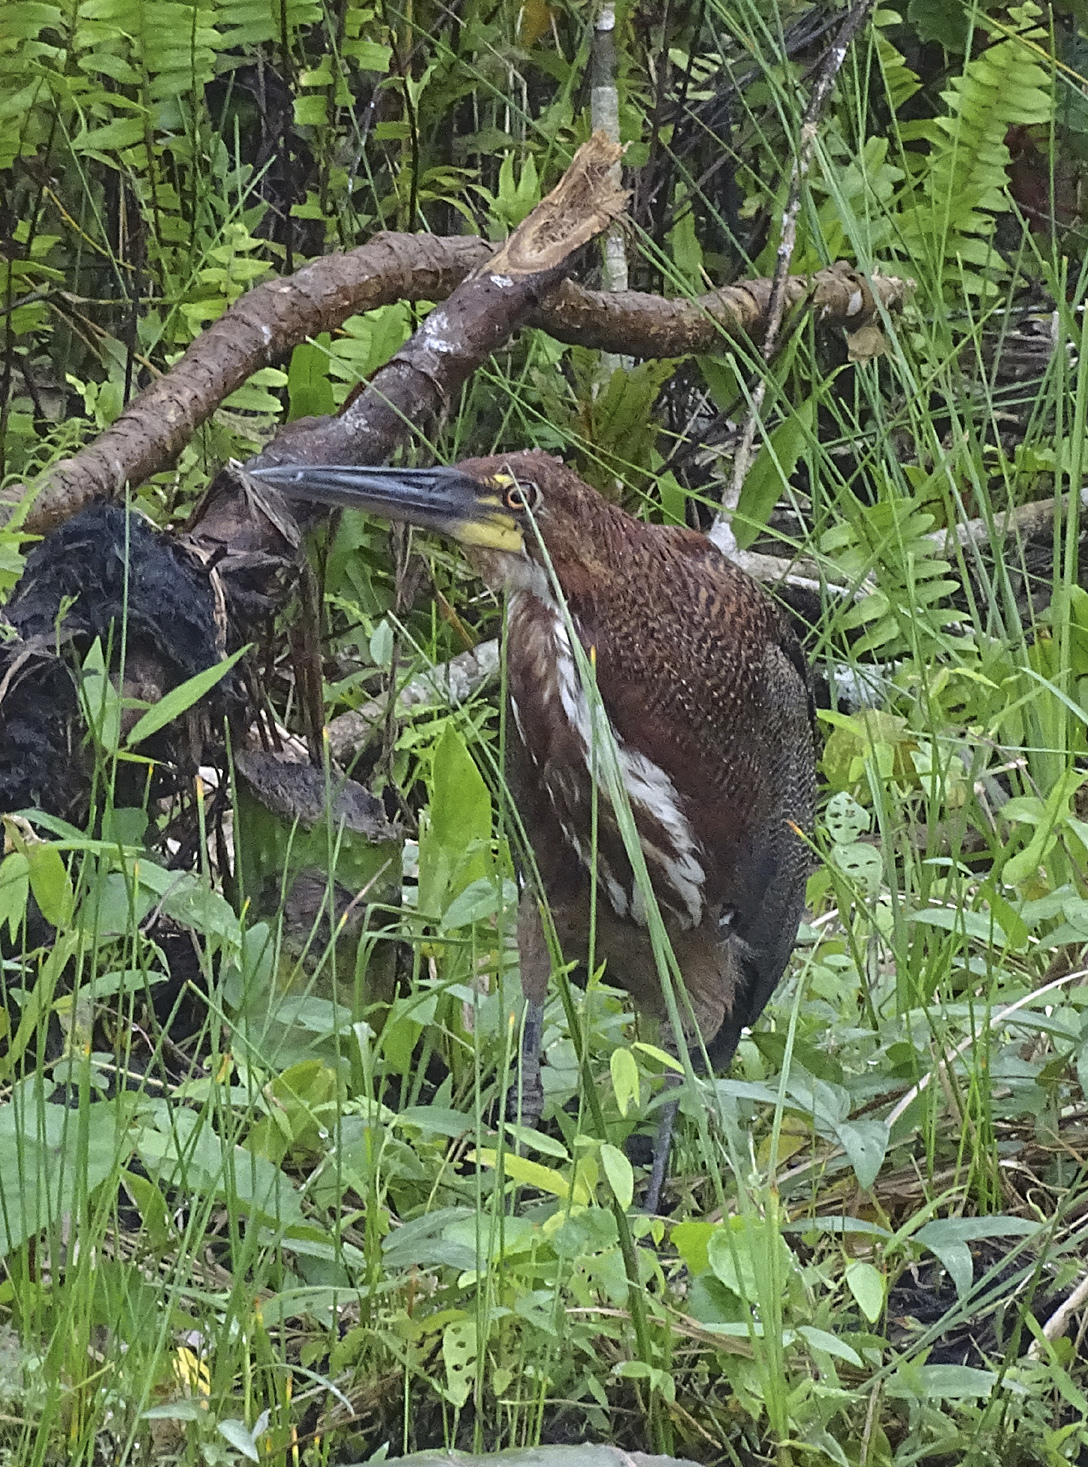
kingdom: Animalia
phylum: Chordata
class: Aves
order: Pelecaniformes
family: Ardeidae
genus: Tigrisoma
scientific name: Tigrisoma lineatum
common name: Rufescent tiger-heron
